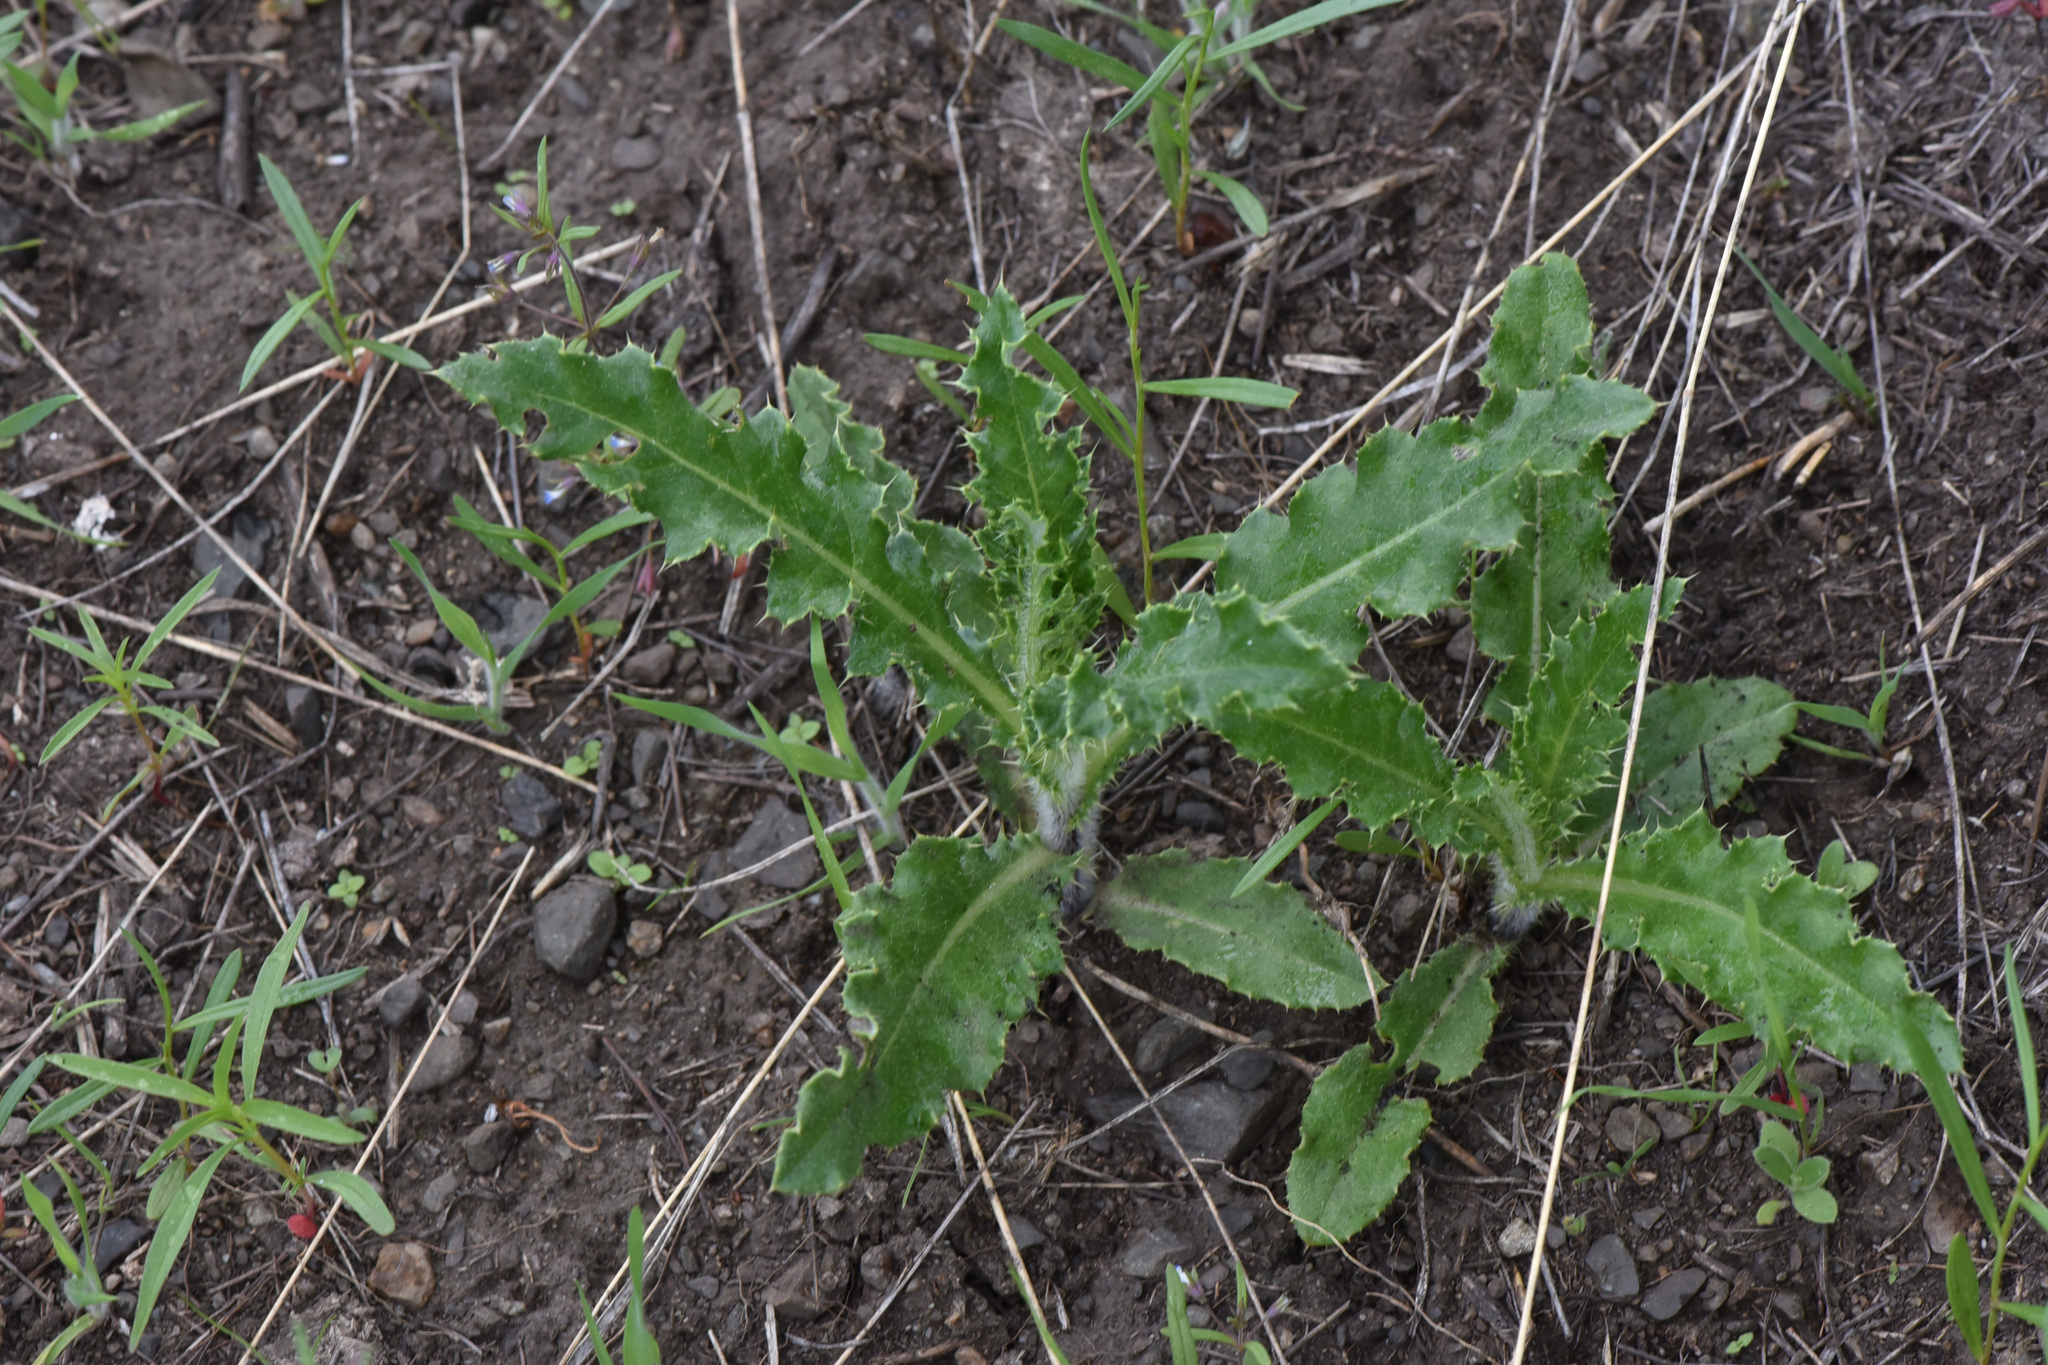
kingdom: Plantae
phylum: Tracheophyta
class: Magnoliopsida
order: Asterales
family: Asteraceae
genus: Cirsium
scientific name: Cirsium arvense
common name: Creeping thistle
